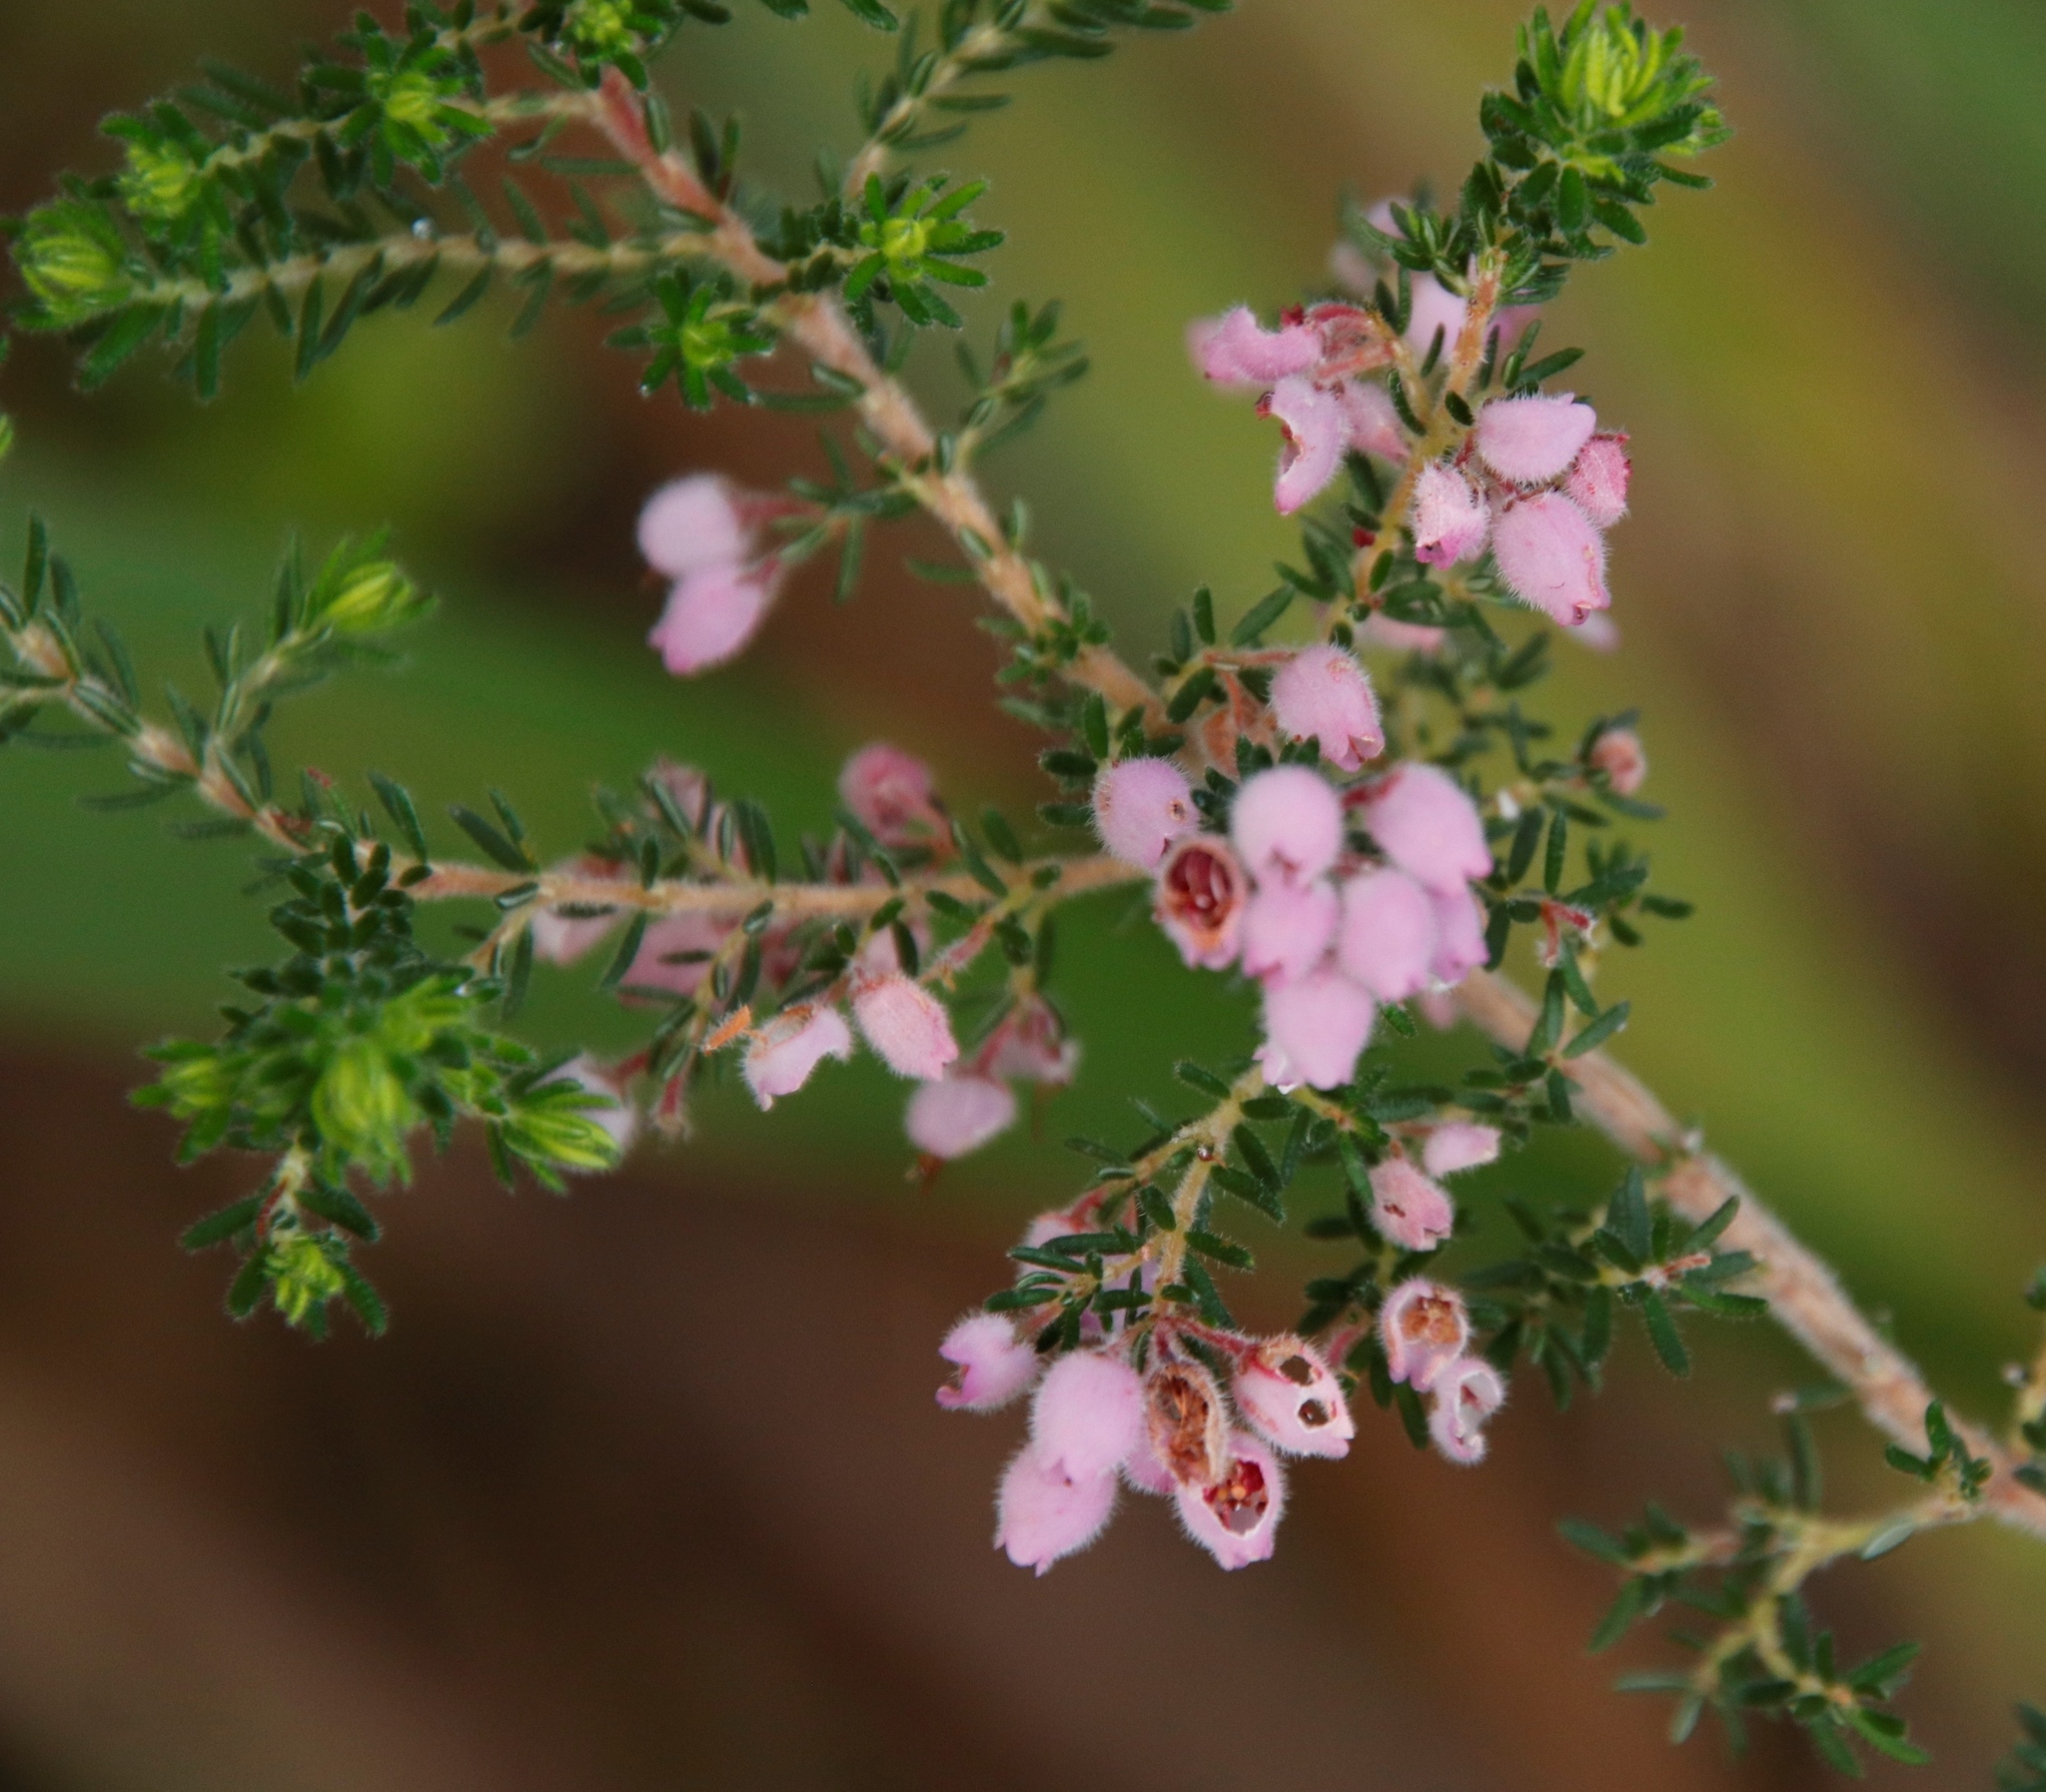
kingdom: Plantae
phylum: Tracheophyta
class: Magnoliopsida
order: Ericales
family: Ericaceae
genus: Erica
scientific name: Erica hirtiflora
